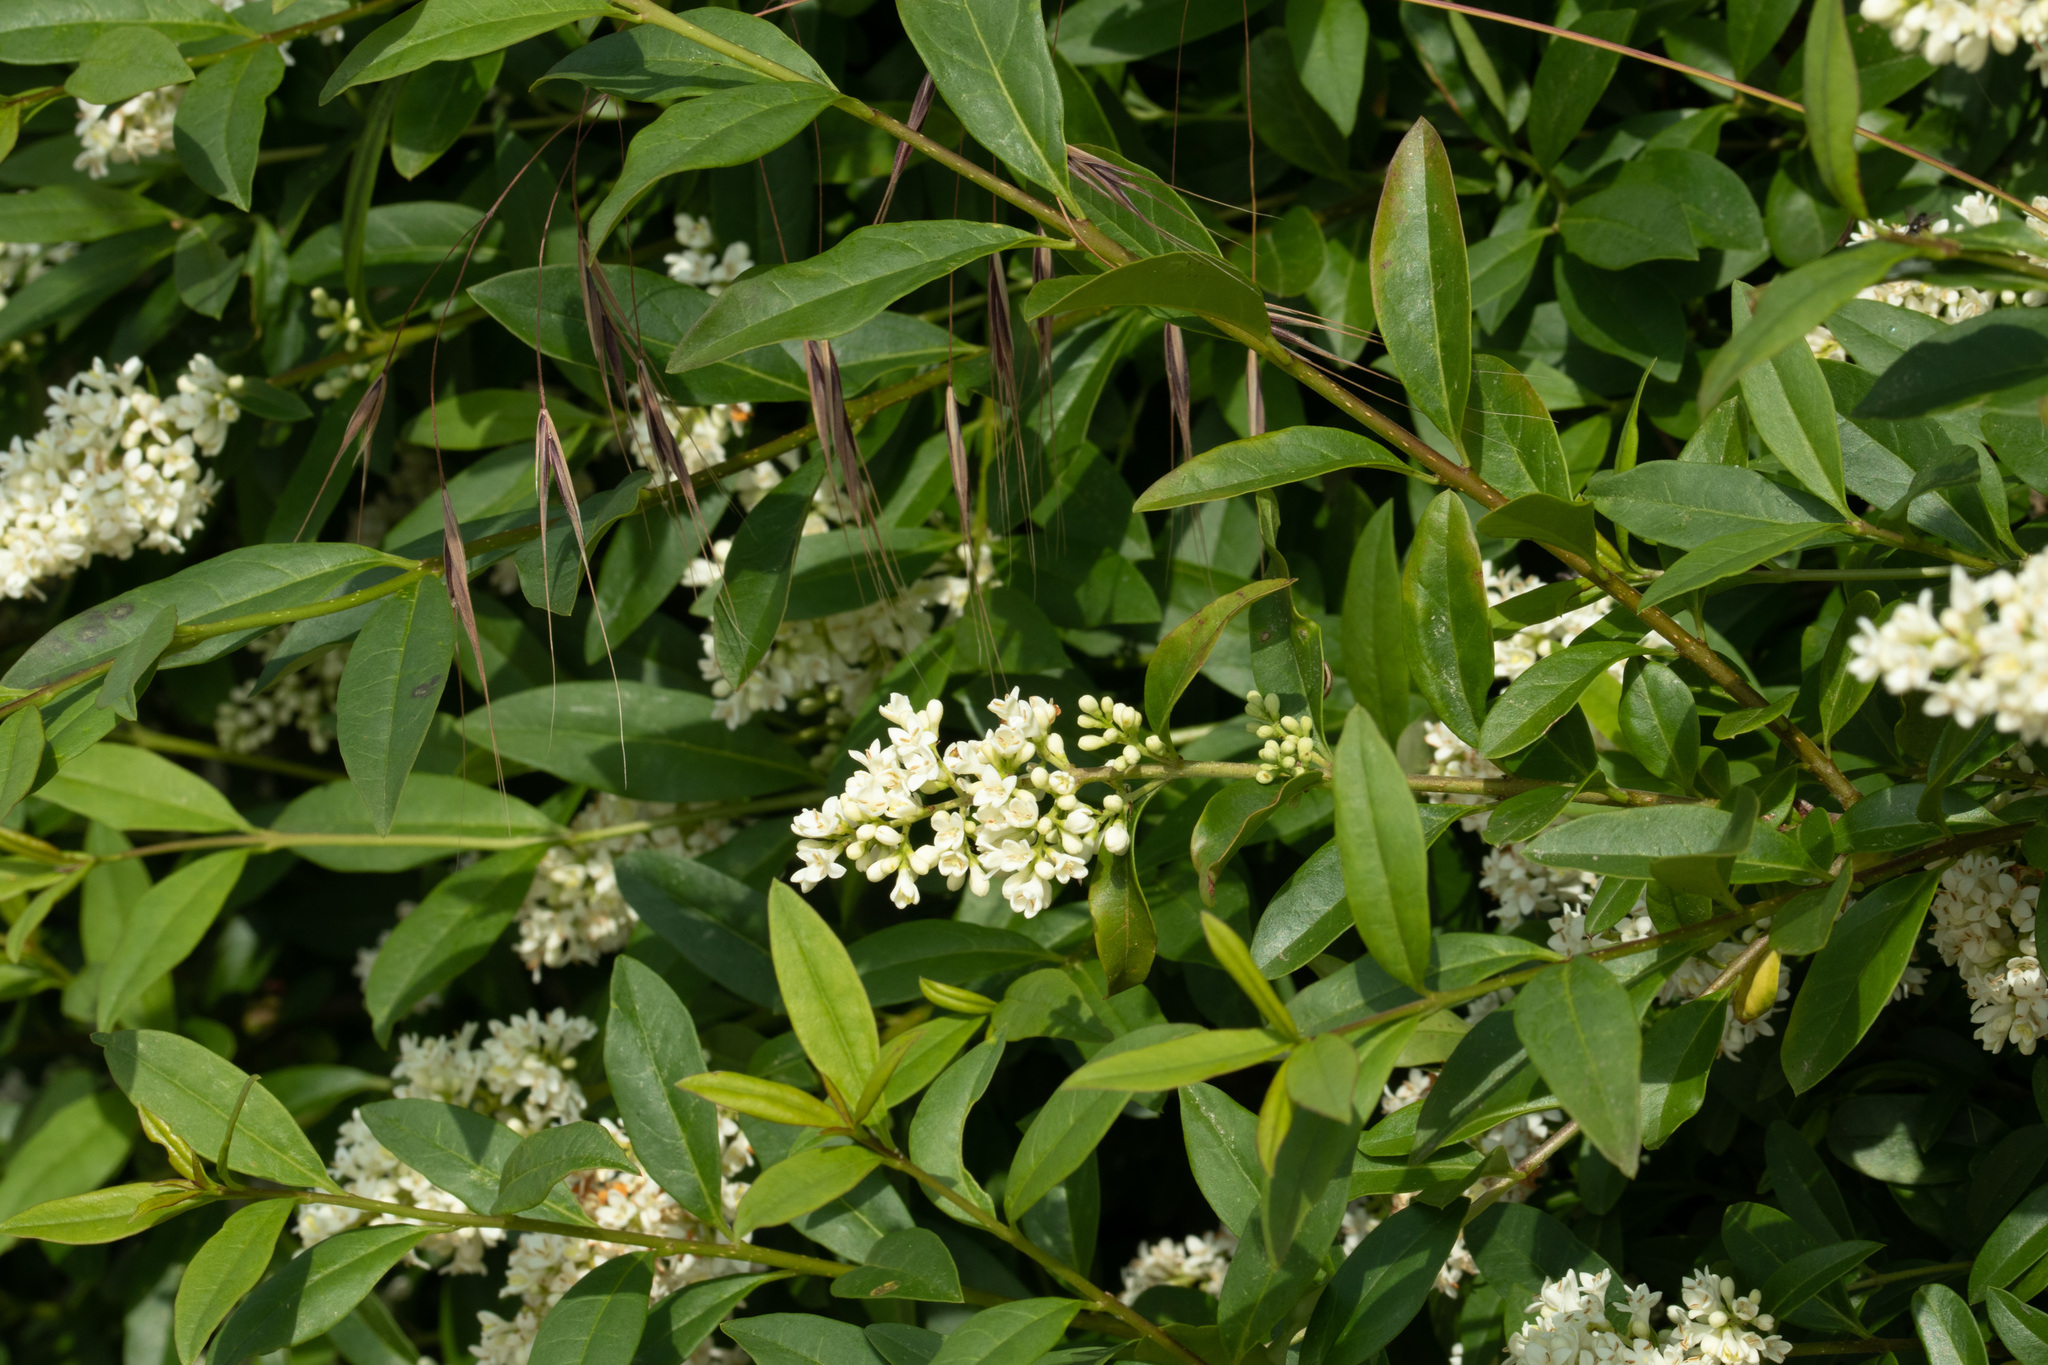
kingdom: Plantae
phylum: Tracheophyta
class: Magnoliopsida
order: Lamiales
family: Oleaceae
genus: Ligustrum
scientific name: Ligustrum vulgare
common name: Wild privet
